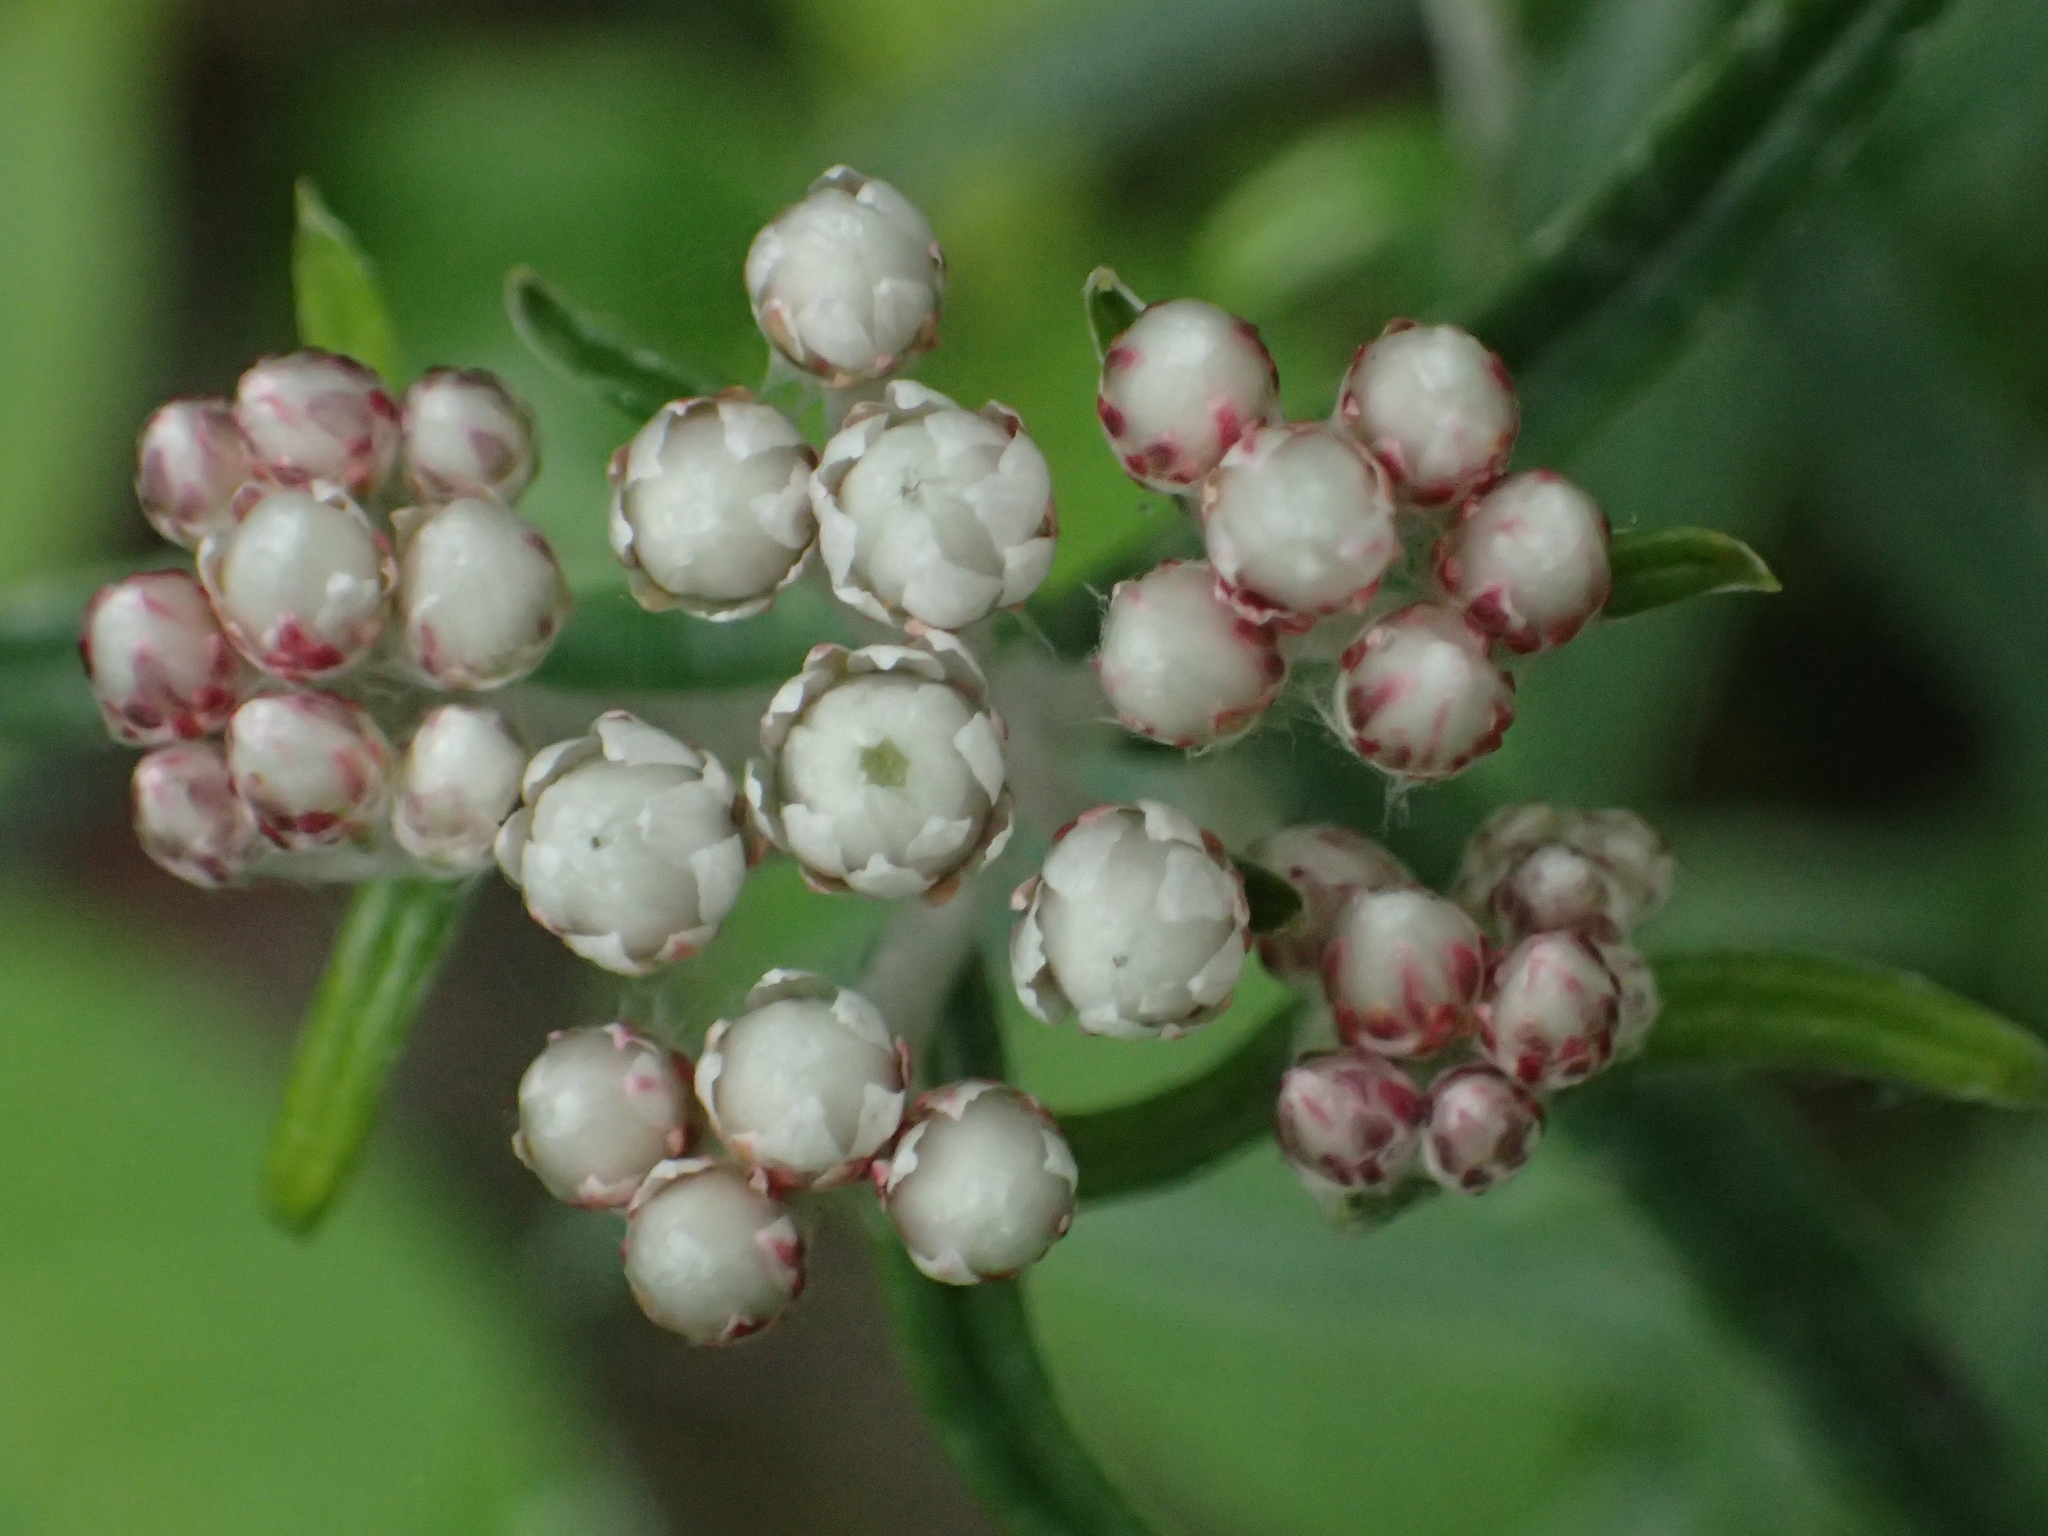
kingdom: Plantae
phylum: Tracheophyta
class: Magnoliopsida
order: Asterales
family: Asteraceae
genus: Anaphalis
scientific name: Anaphalis morrisonicola
